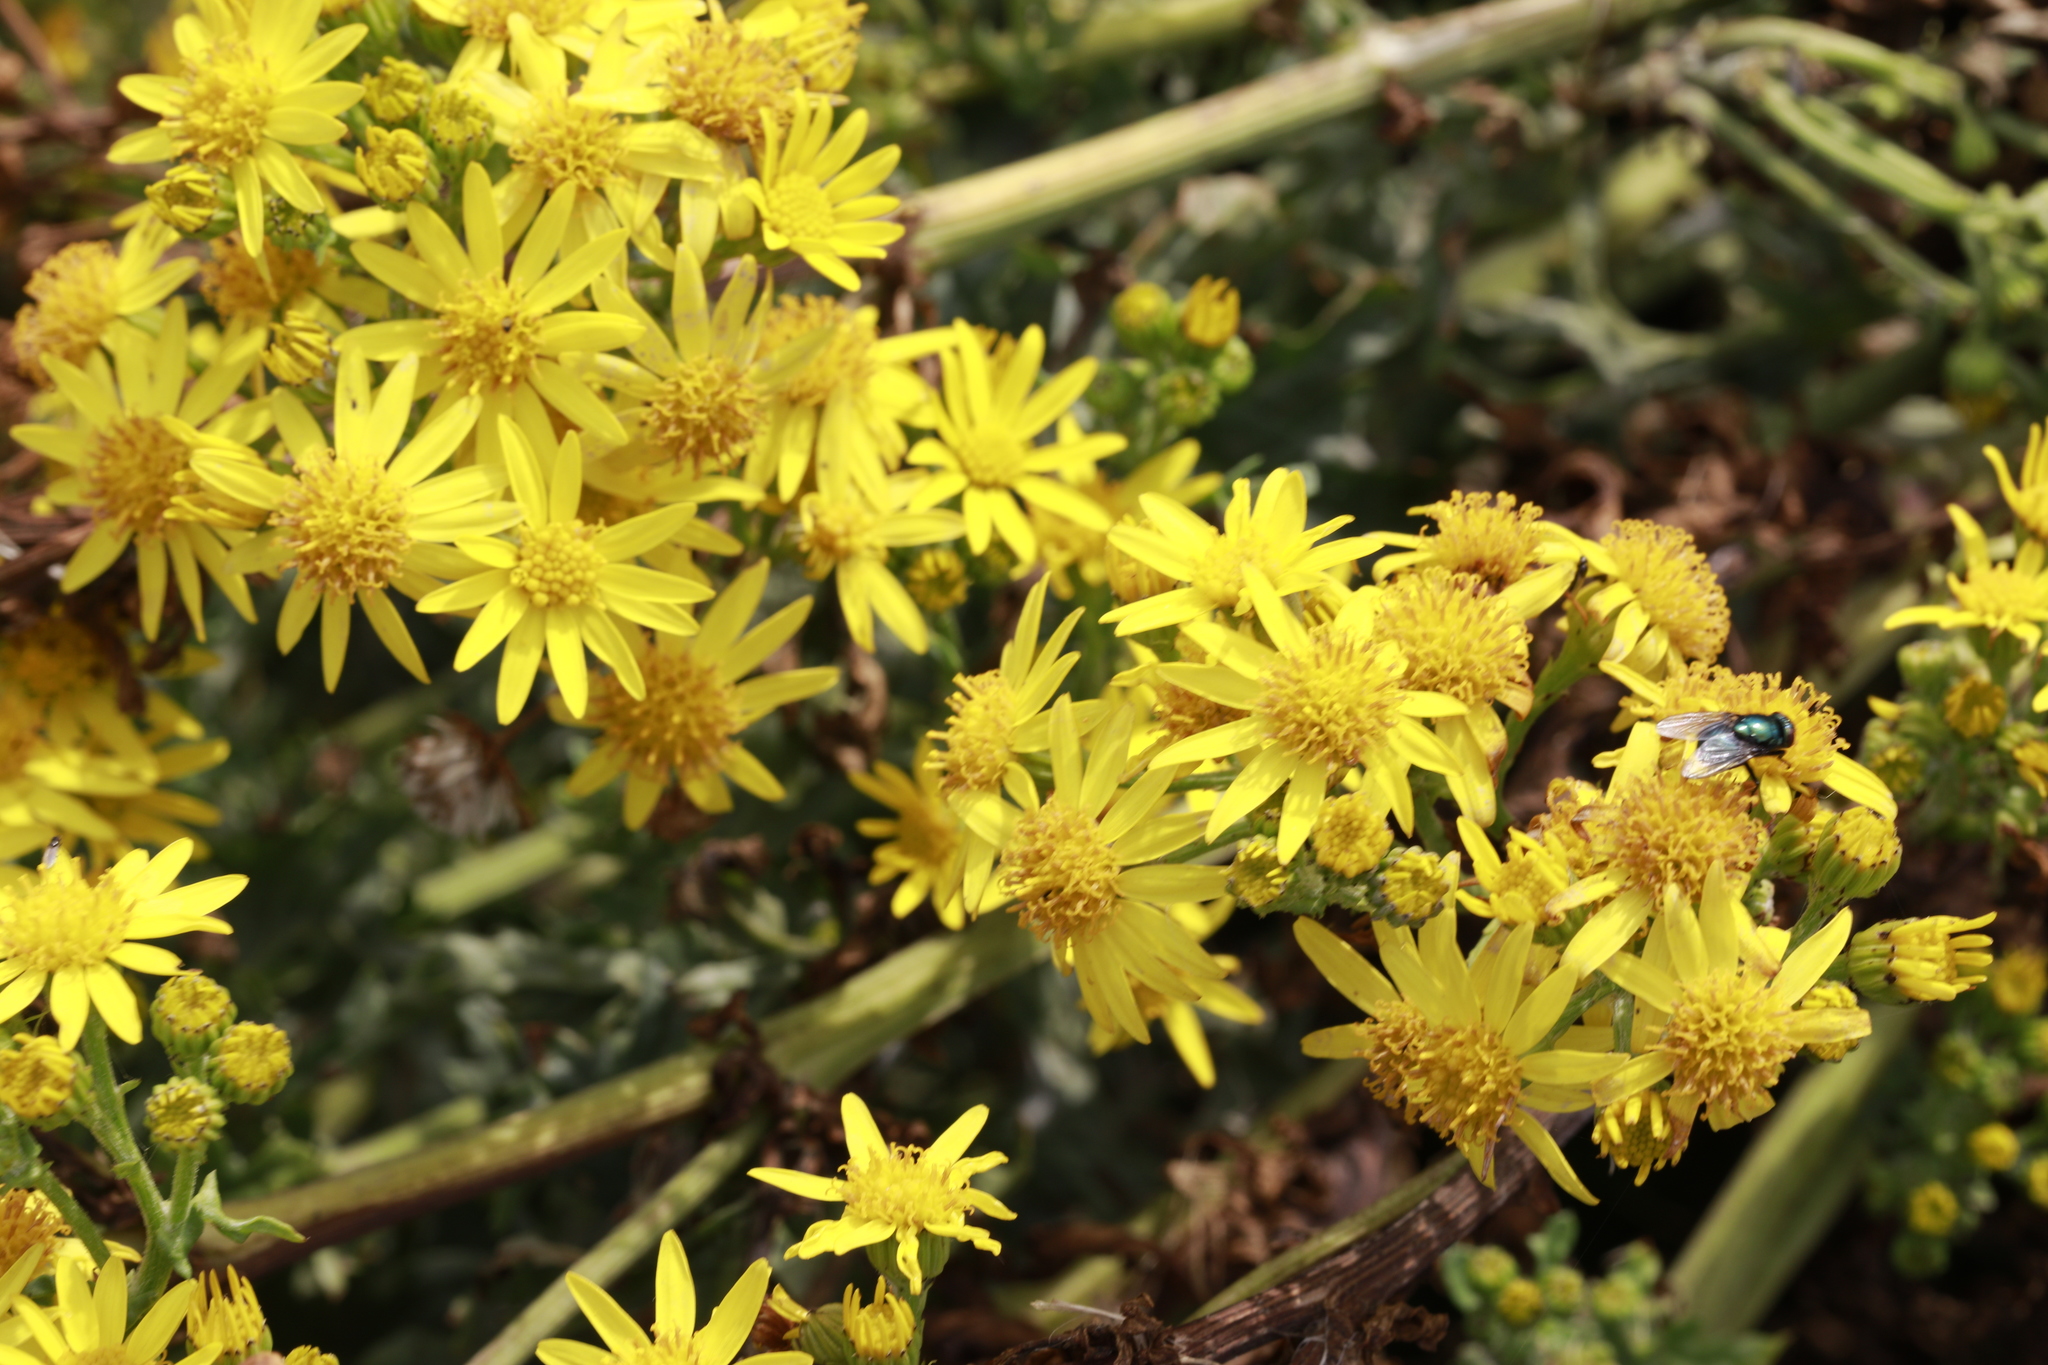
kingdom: Plantae
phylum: Tracheophyta
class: Magnoliopsida
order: Asterales
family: Asteraceae
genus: Jacobaea
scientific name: Jacobaea vulgaris
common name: Stinking willie
